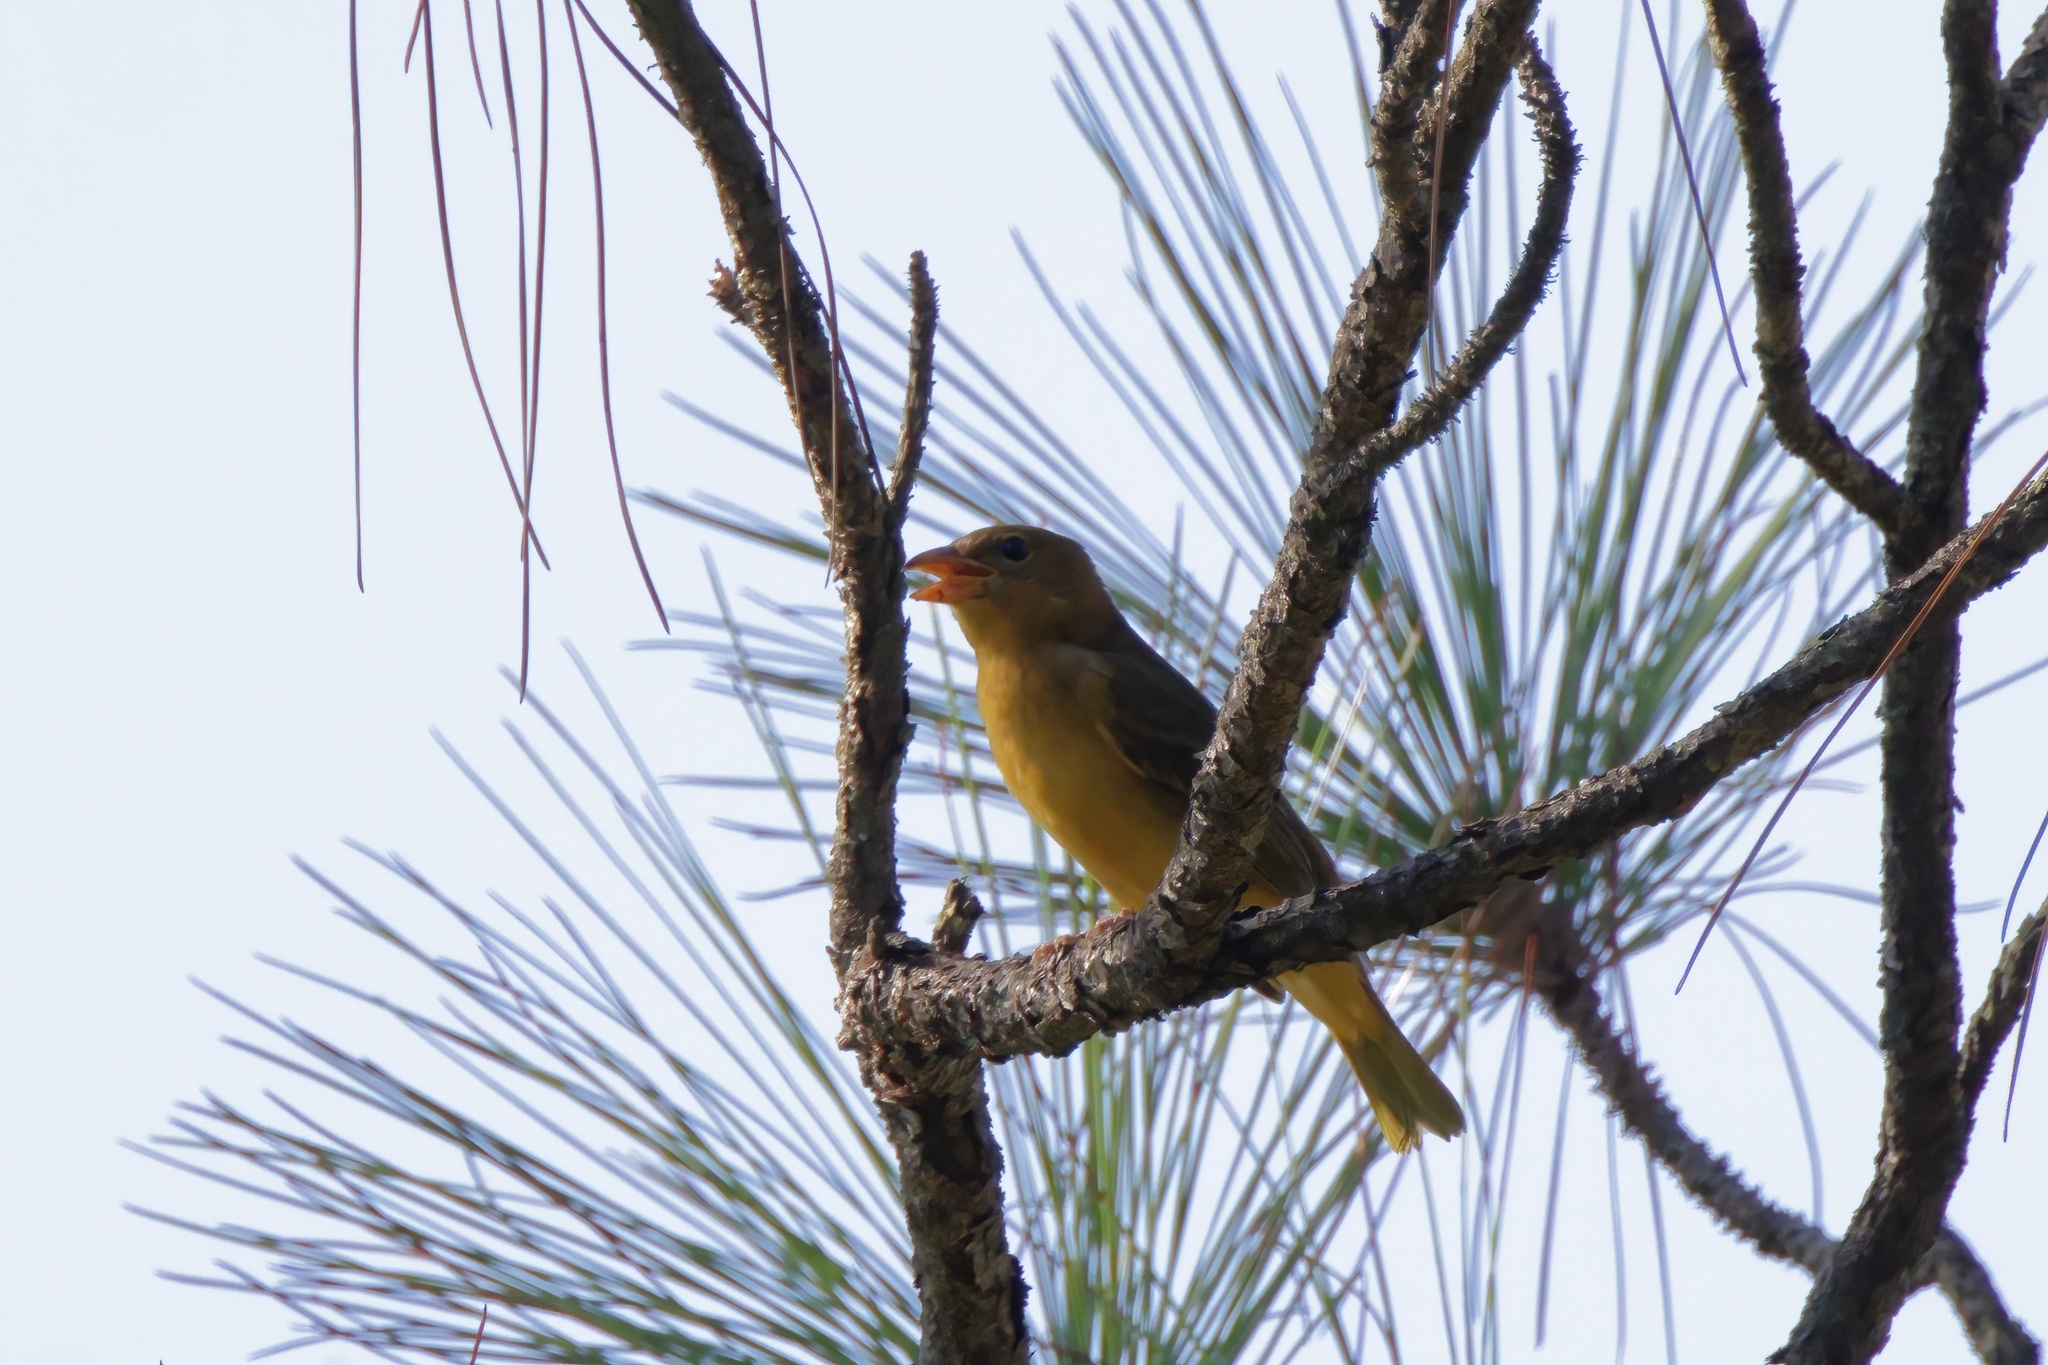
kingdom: Animalia
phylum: Chordata
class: Aves
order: Passeriformes
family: Cardinalidae
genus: Piranga
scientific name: Piranga rubra
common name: Summer tanager
